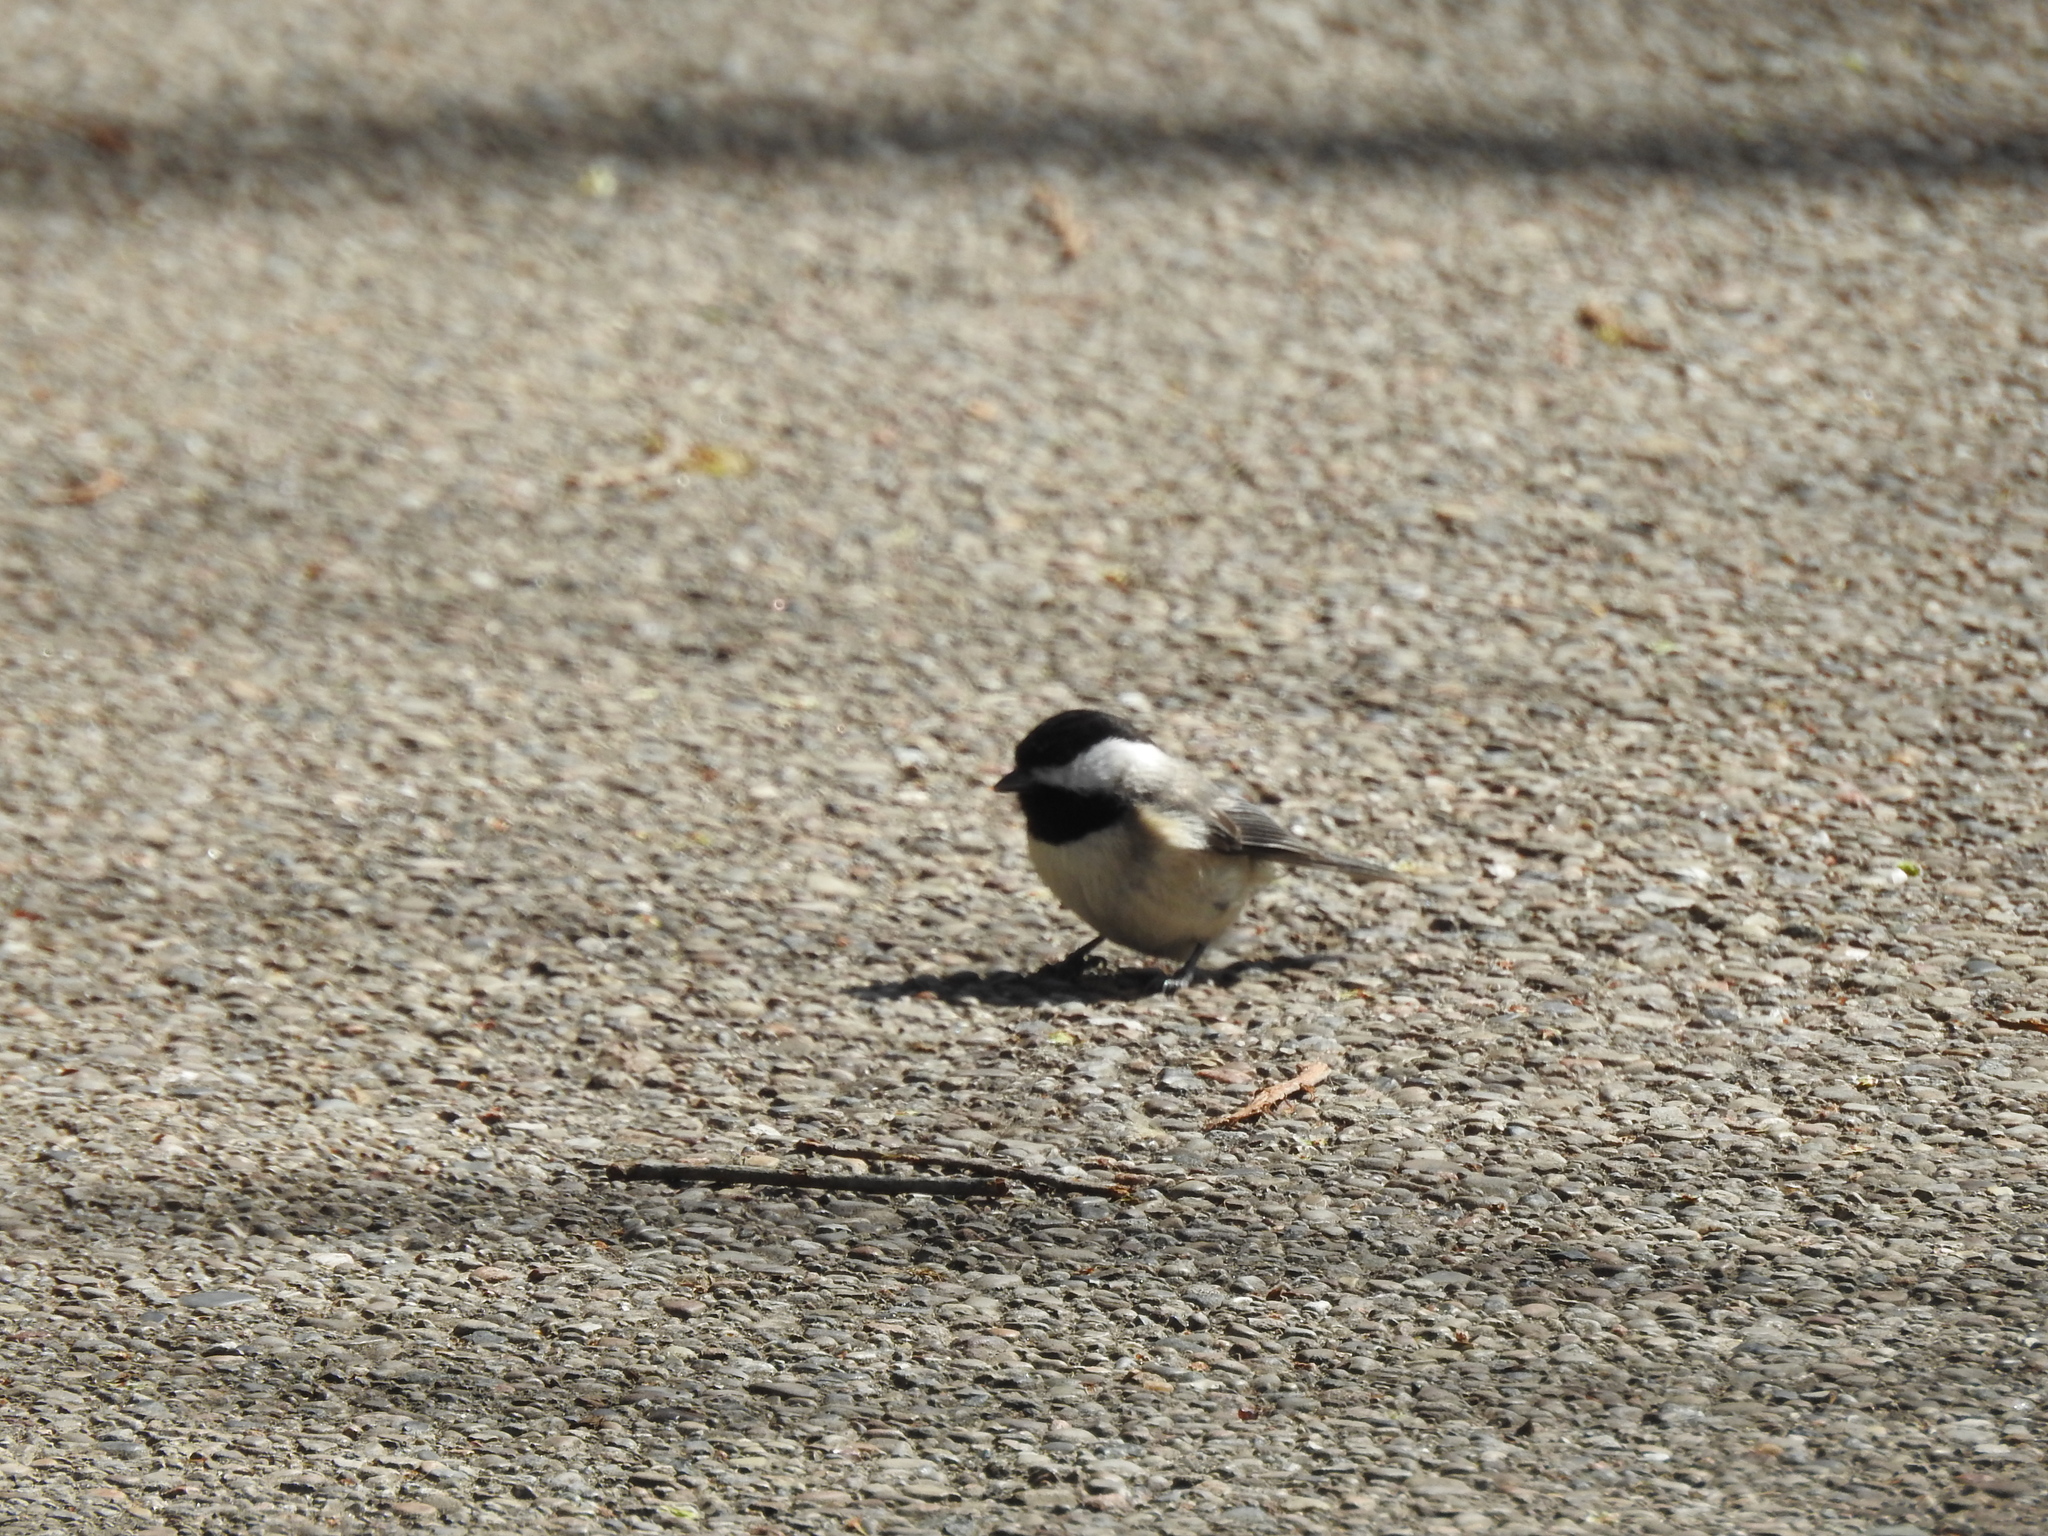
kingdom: Animalia
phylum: Chordata
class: Aves
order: Passeriformes
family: Paridae
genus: Poecile
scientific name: Poecile carolinensis
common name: Carolina chickadee
